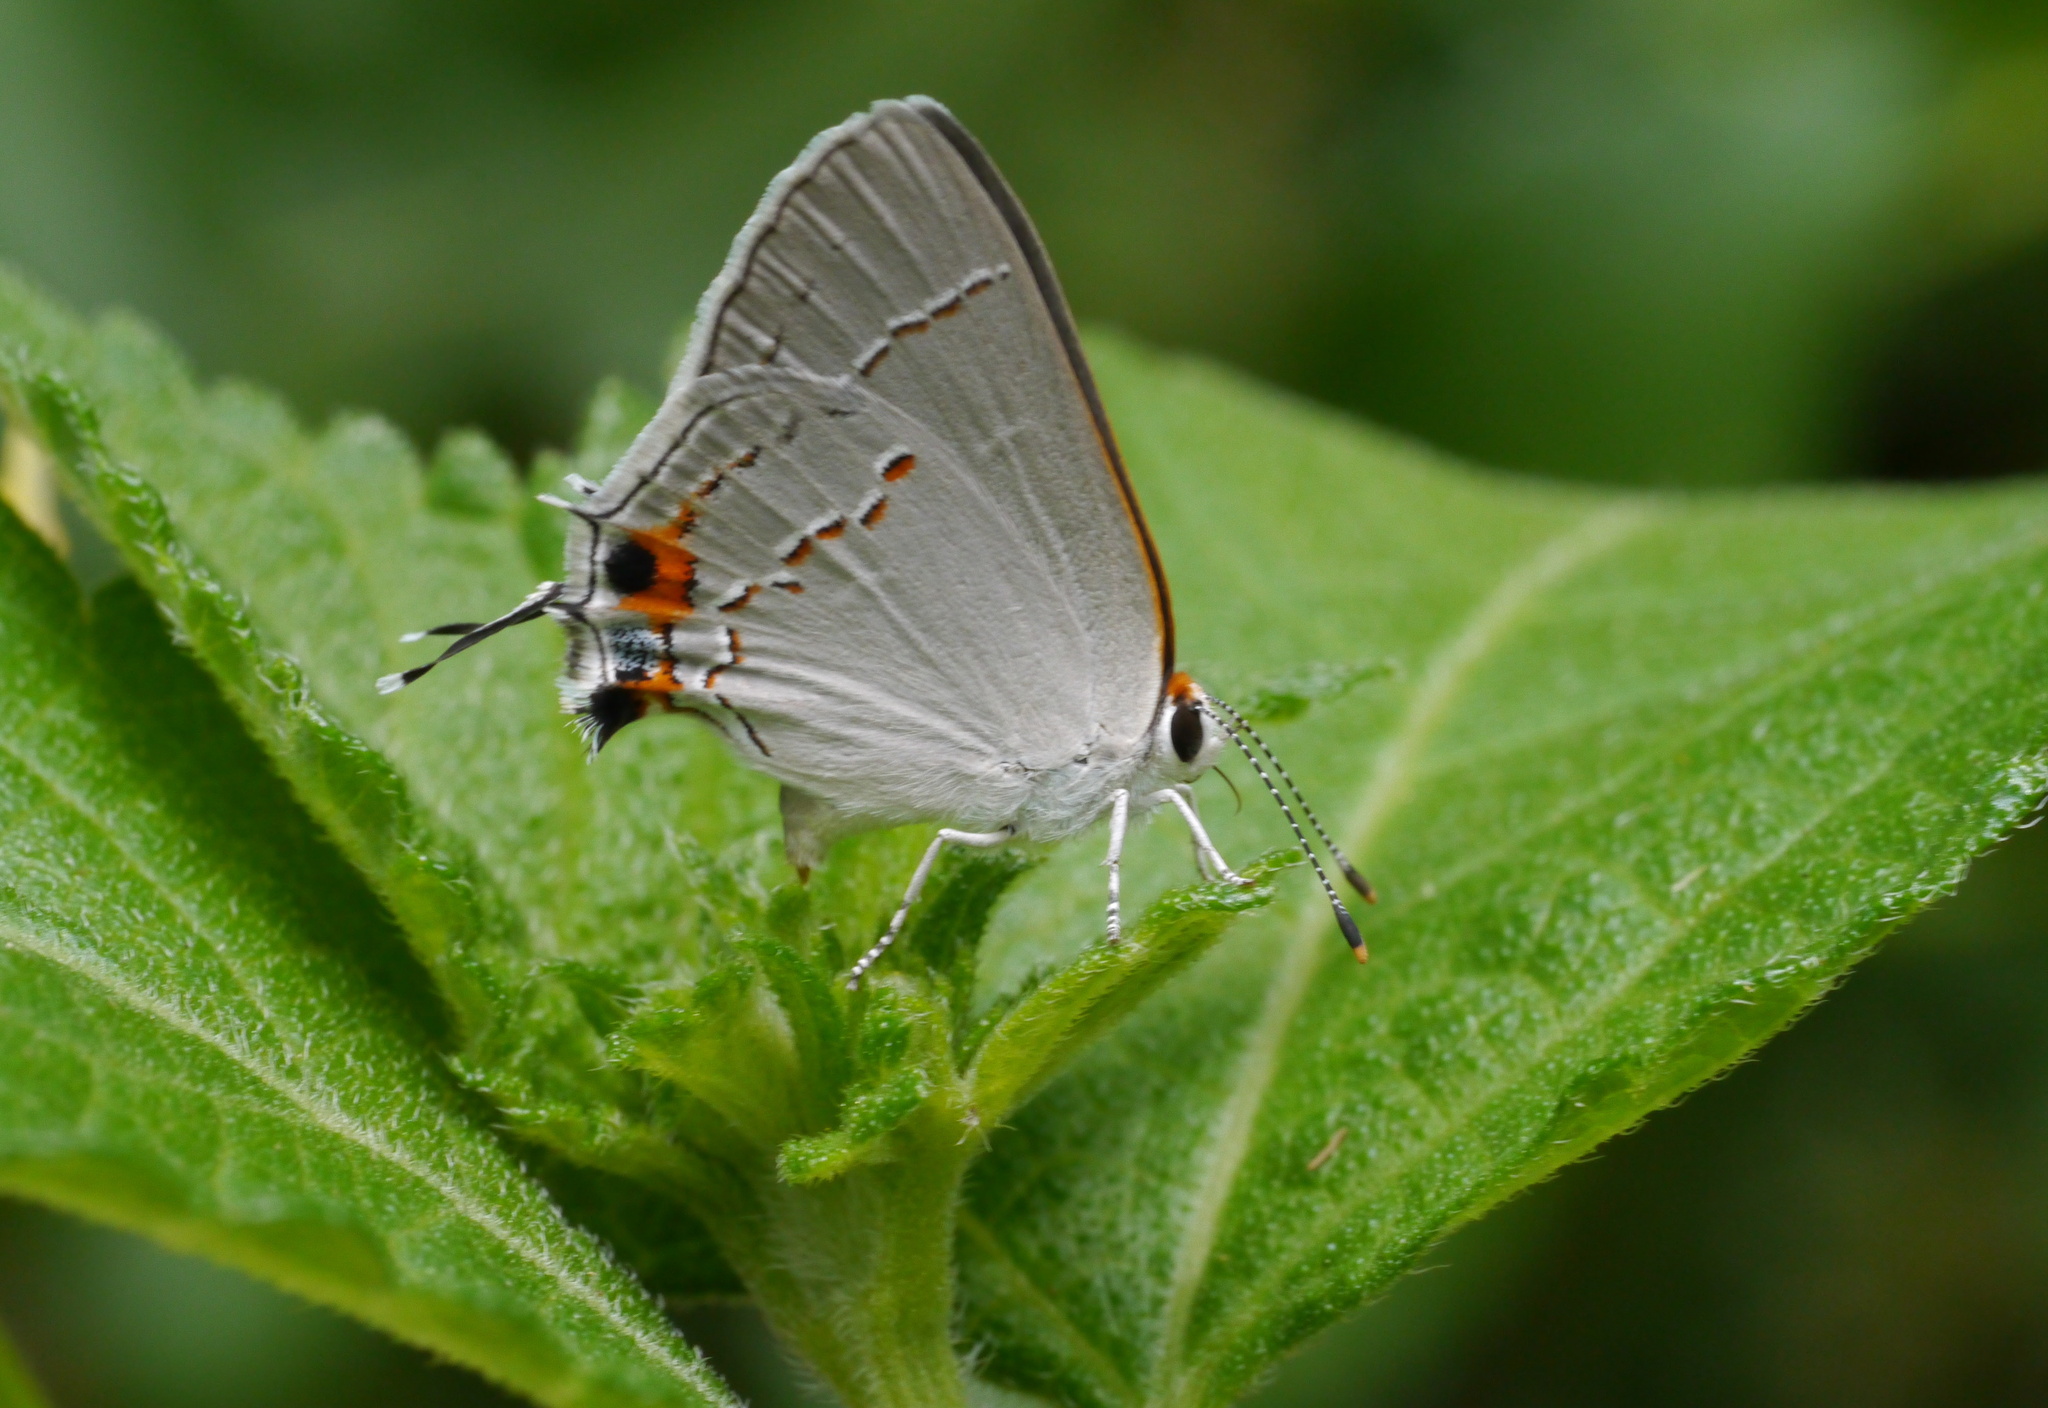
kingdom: Animalia
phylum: Arthropoda
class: Insecta
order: Lepidoptera
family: Lycaenidae
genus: Strymon
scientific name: Strymon melinus
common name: Gray hairstreak
